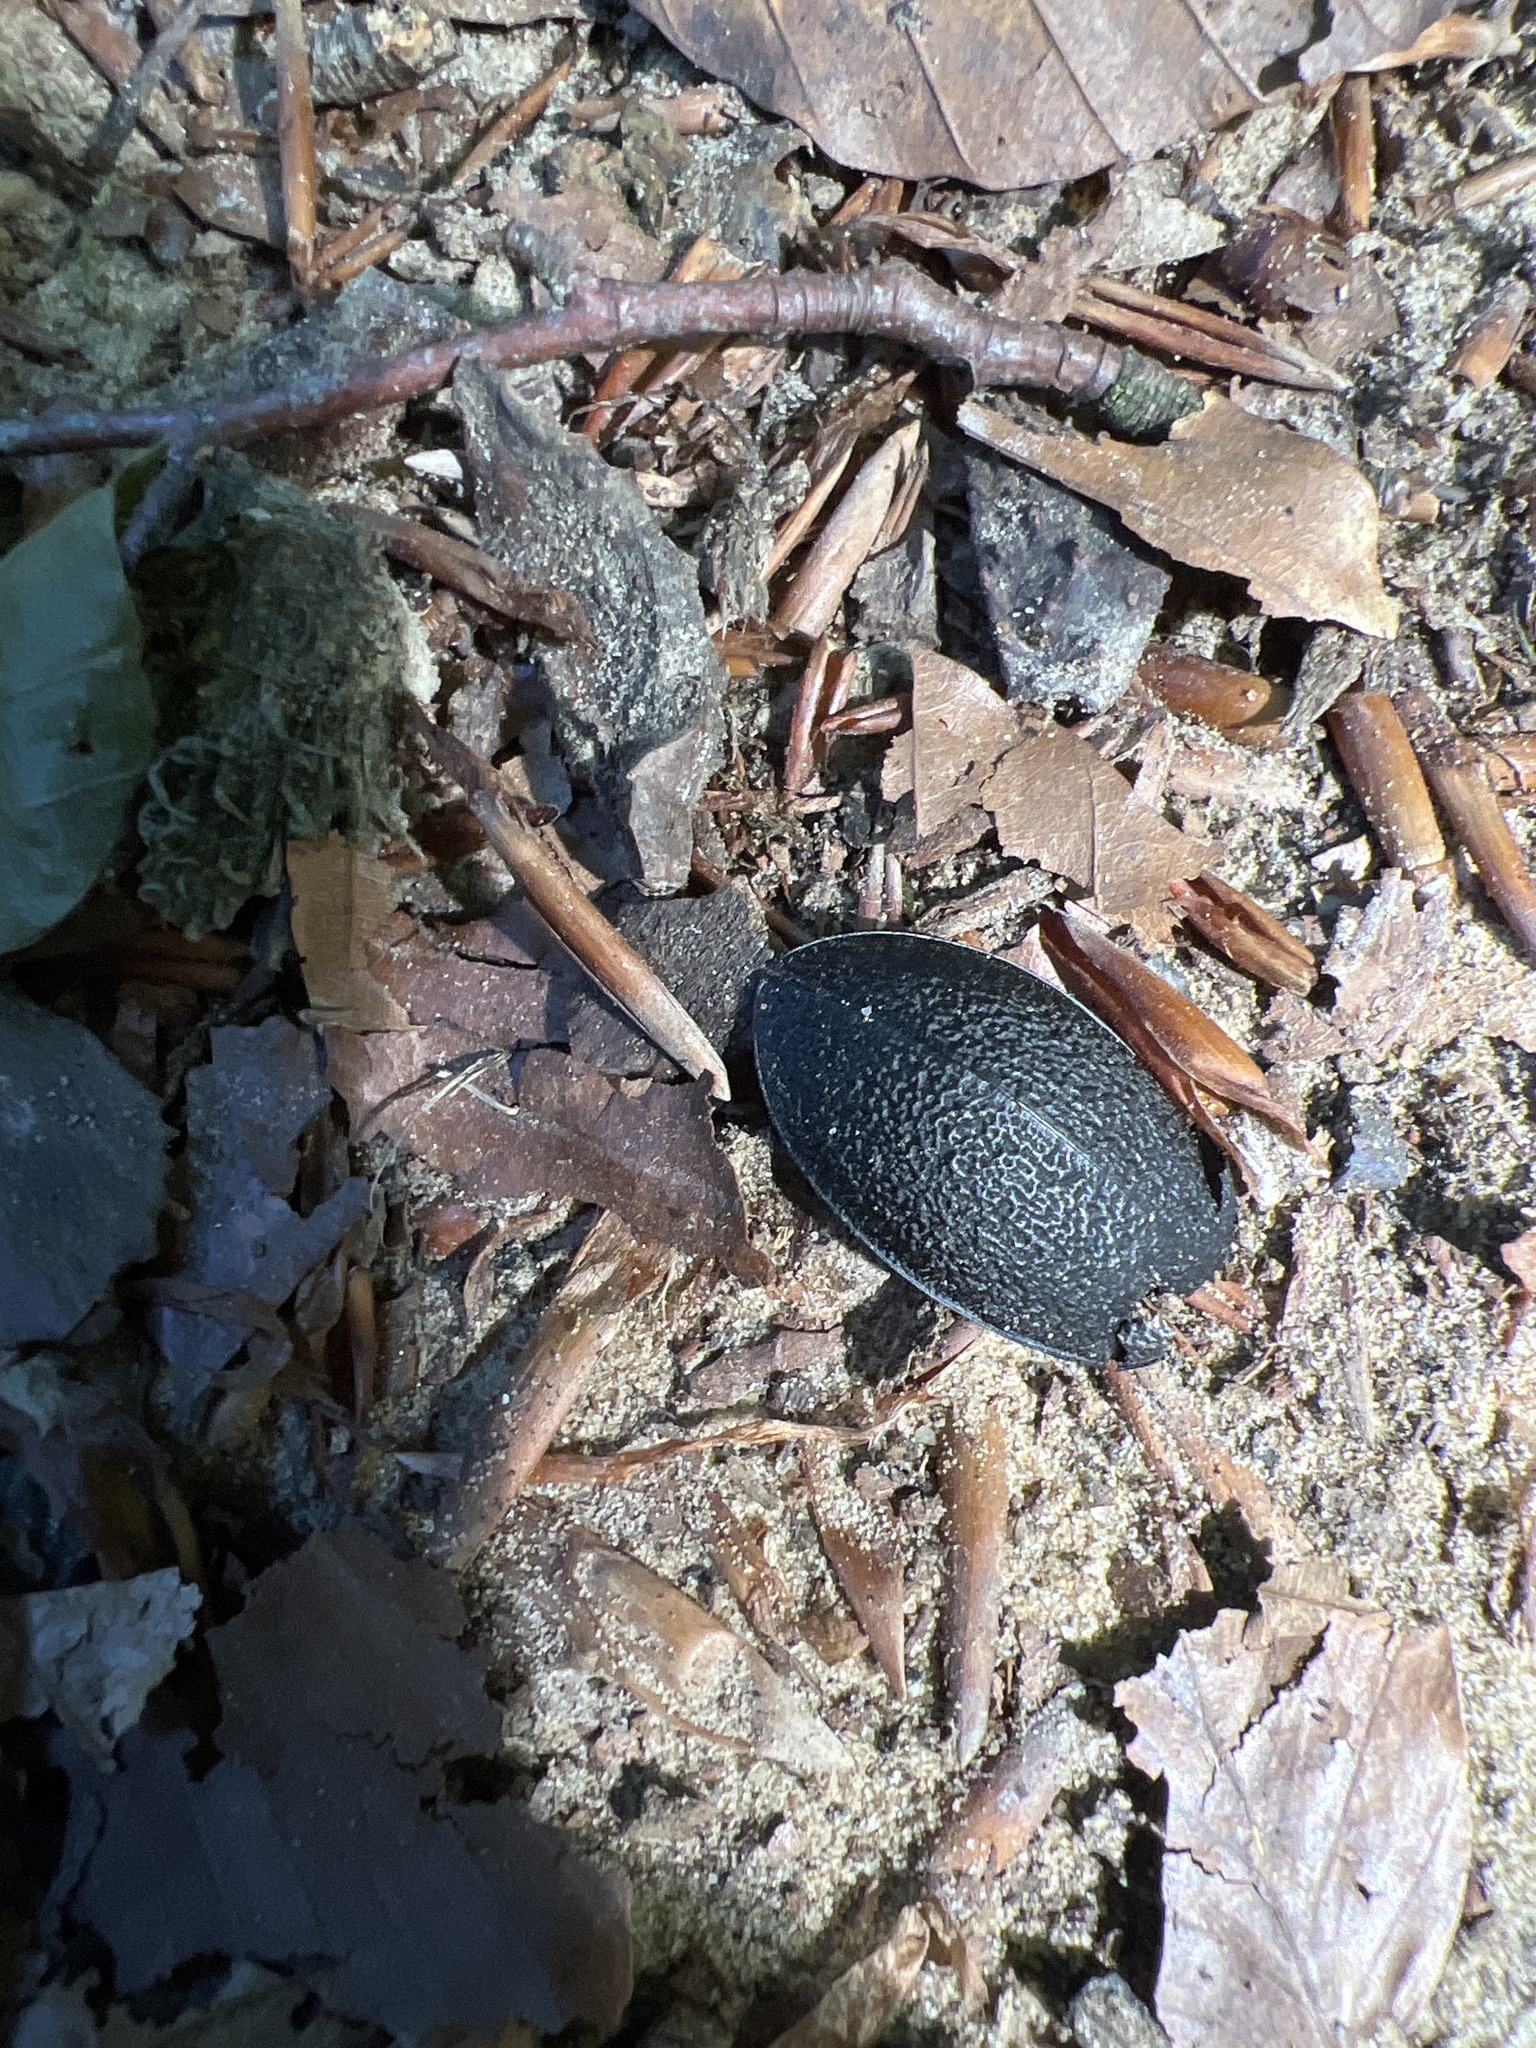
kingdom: Animalia
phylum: Arthropoda
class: Insecta
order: Coleoptera
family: Carabidae
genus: Carabus
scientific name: Carabus coriaceus
